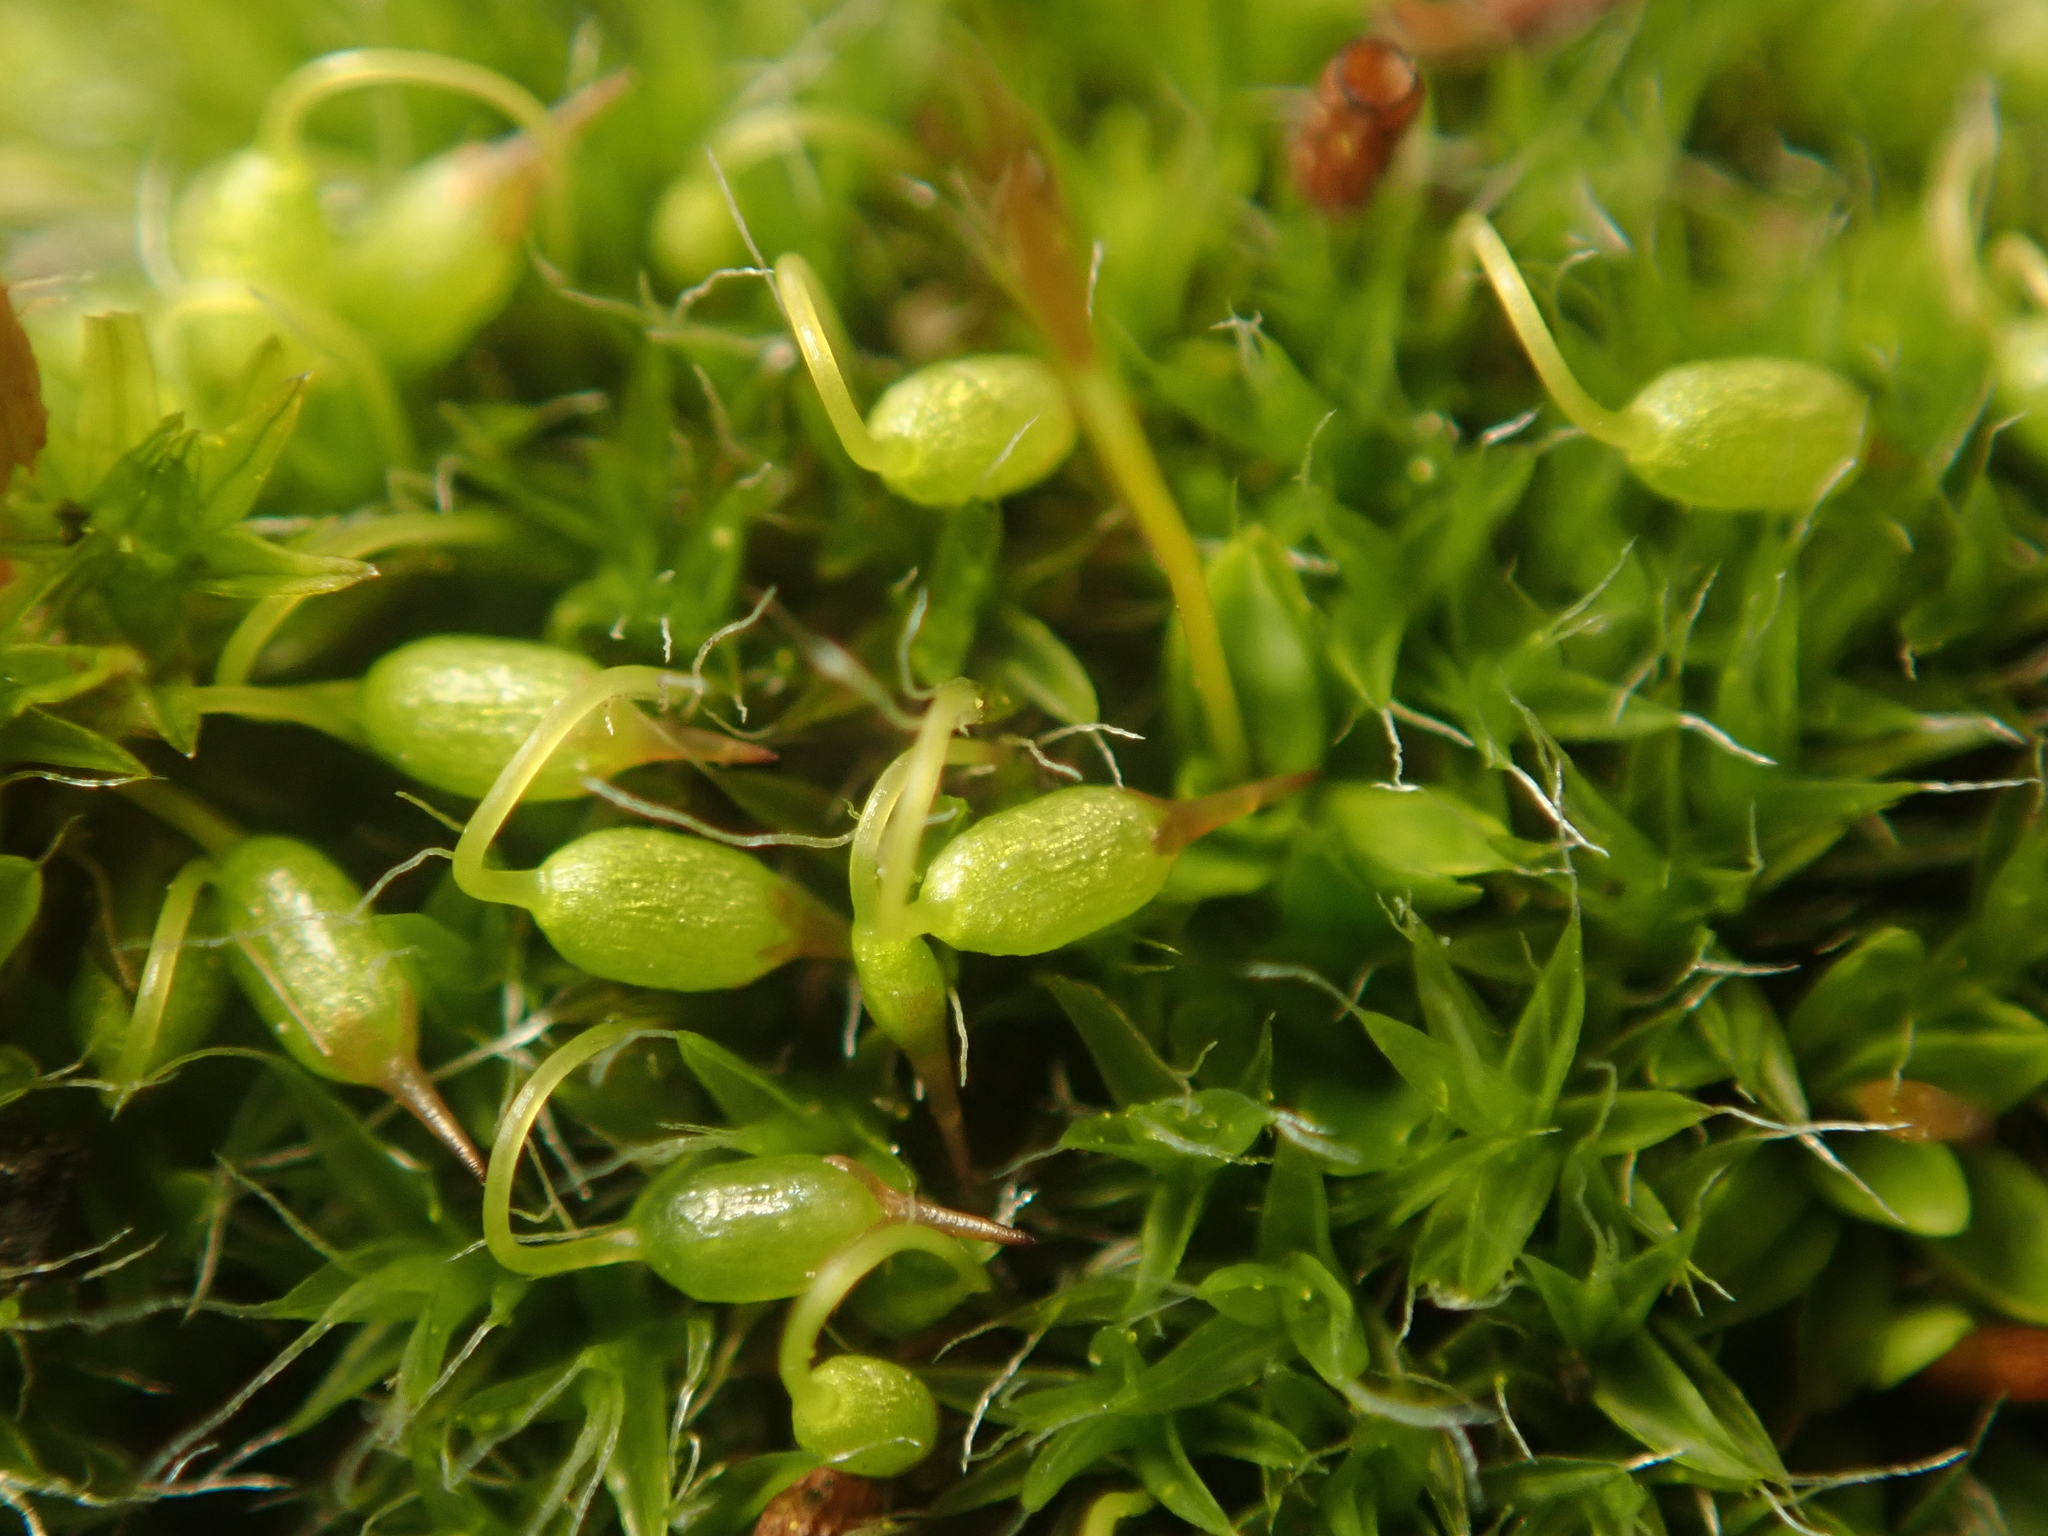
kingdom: Plantae
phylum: Bryophyta
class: Bryopsida
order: Grimmiales
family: Grimmiaceae
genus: Grimmia
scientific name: Grimmia pulvinata
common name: Grey-cushioned grimmia
